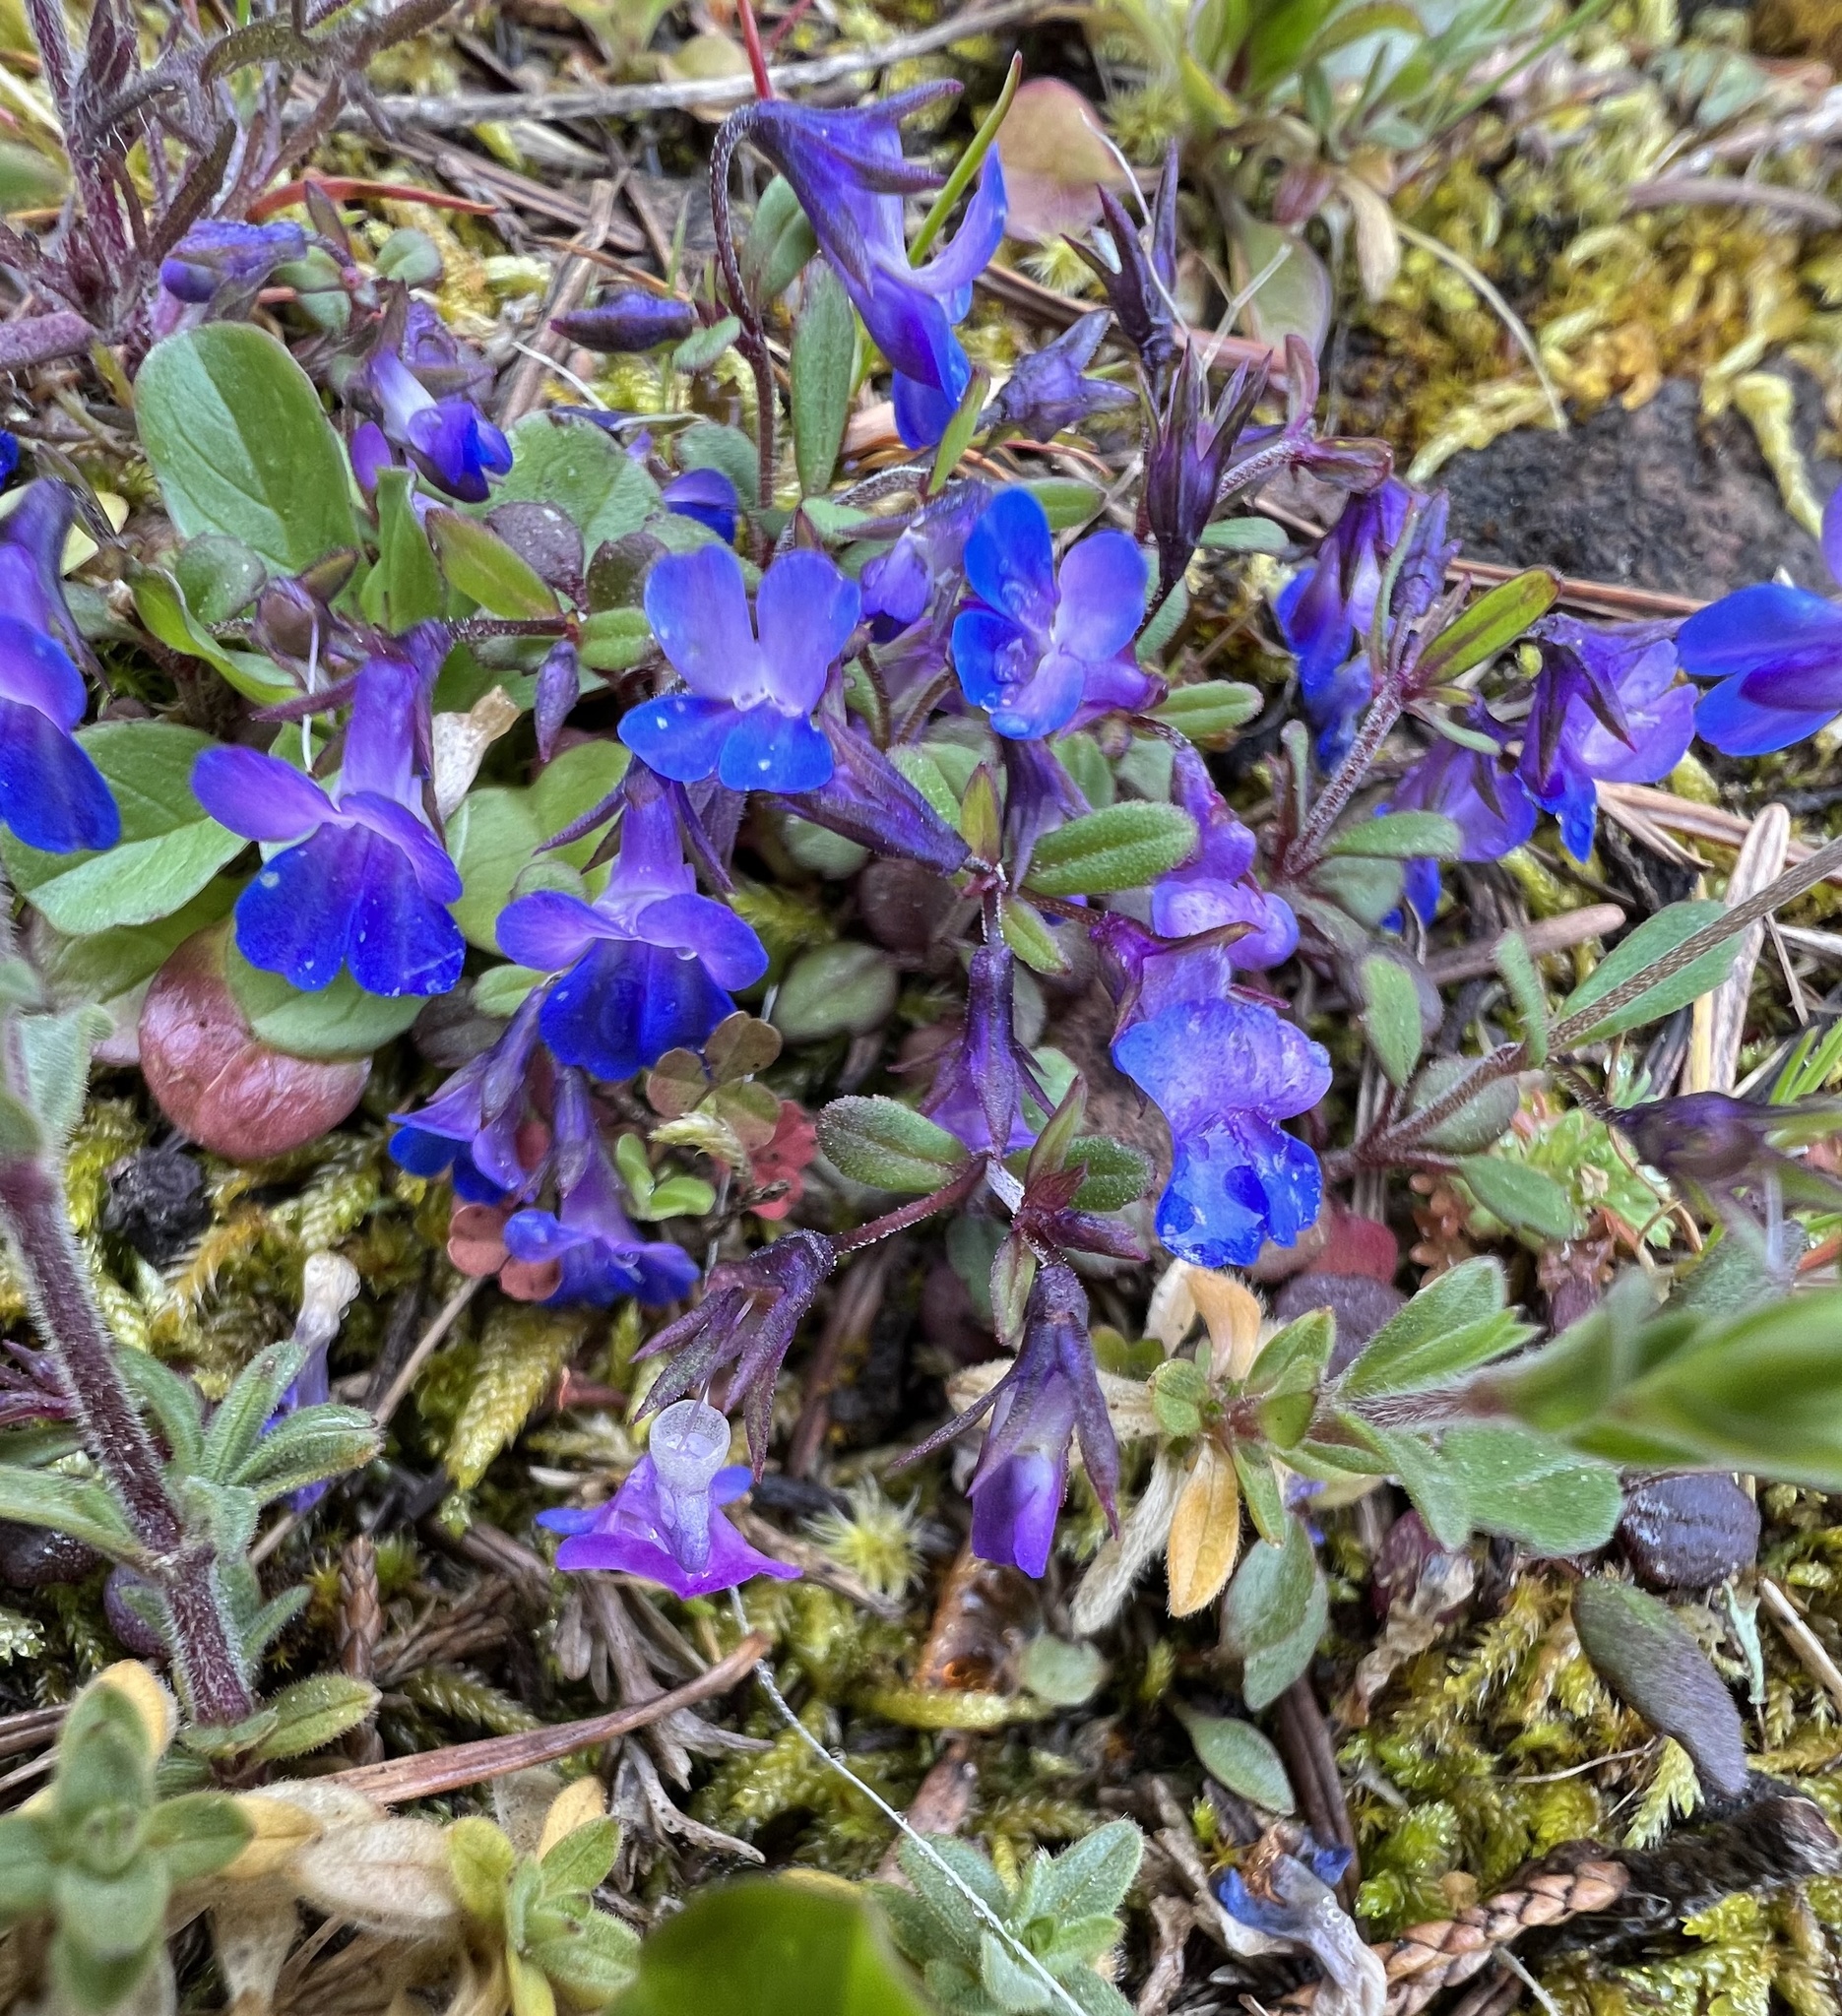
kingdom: Plantae
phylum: Tracheophyta
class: Magnoliopsida
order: Lamiales
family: Plantaginaceae
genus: Collinsia
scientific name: Collinsia parviflora
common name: Blue-lips
